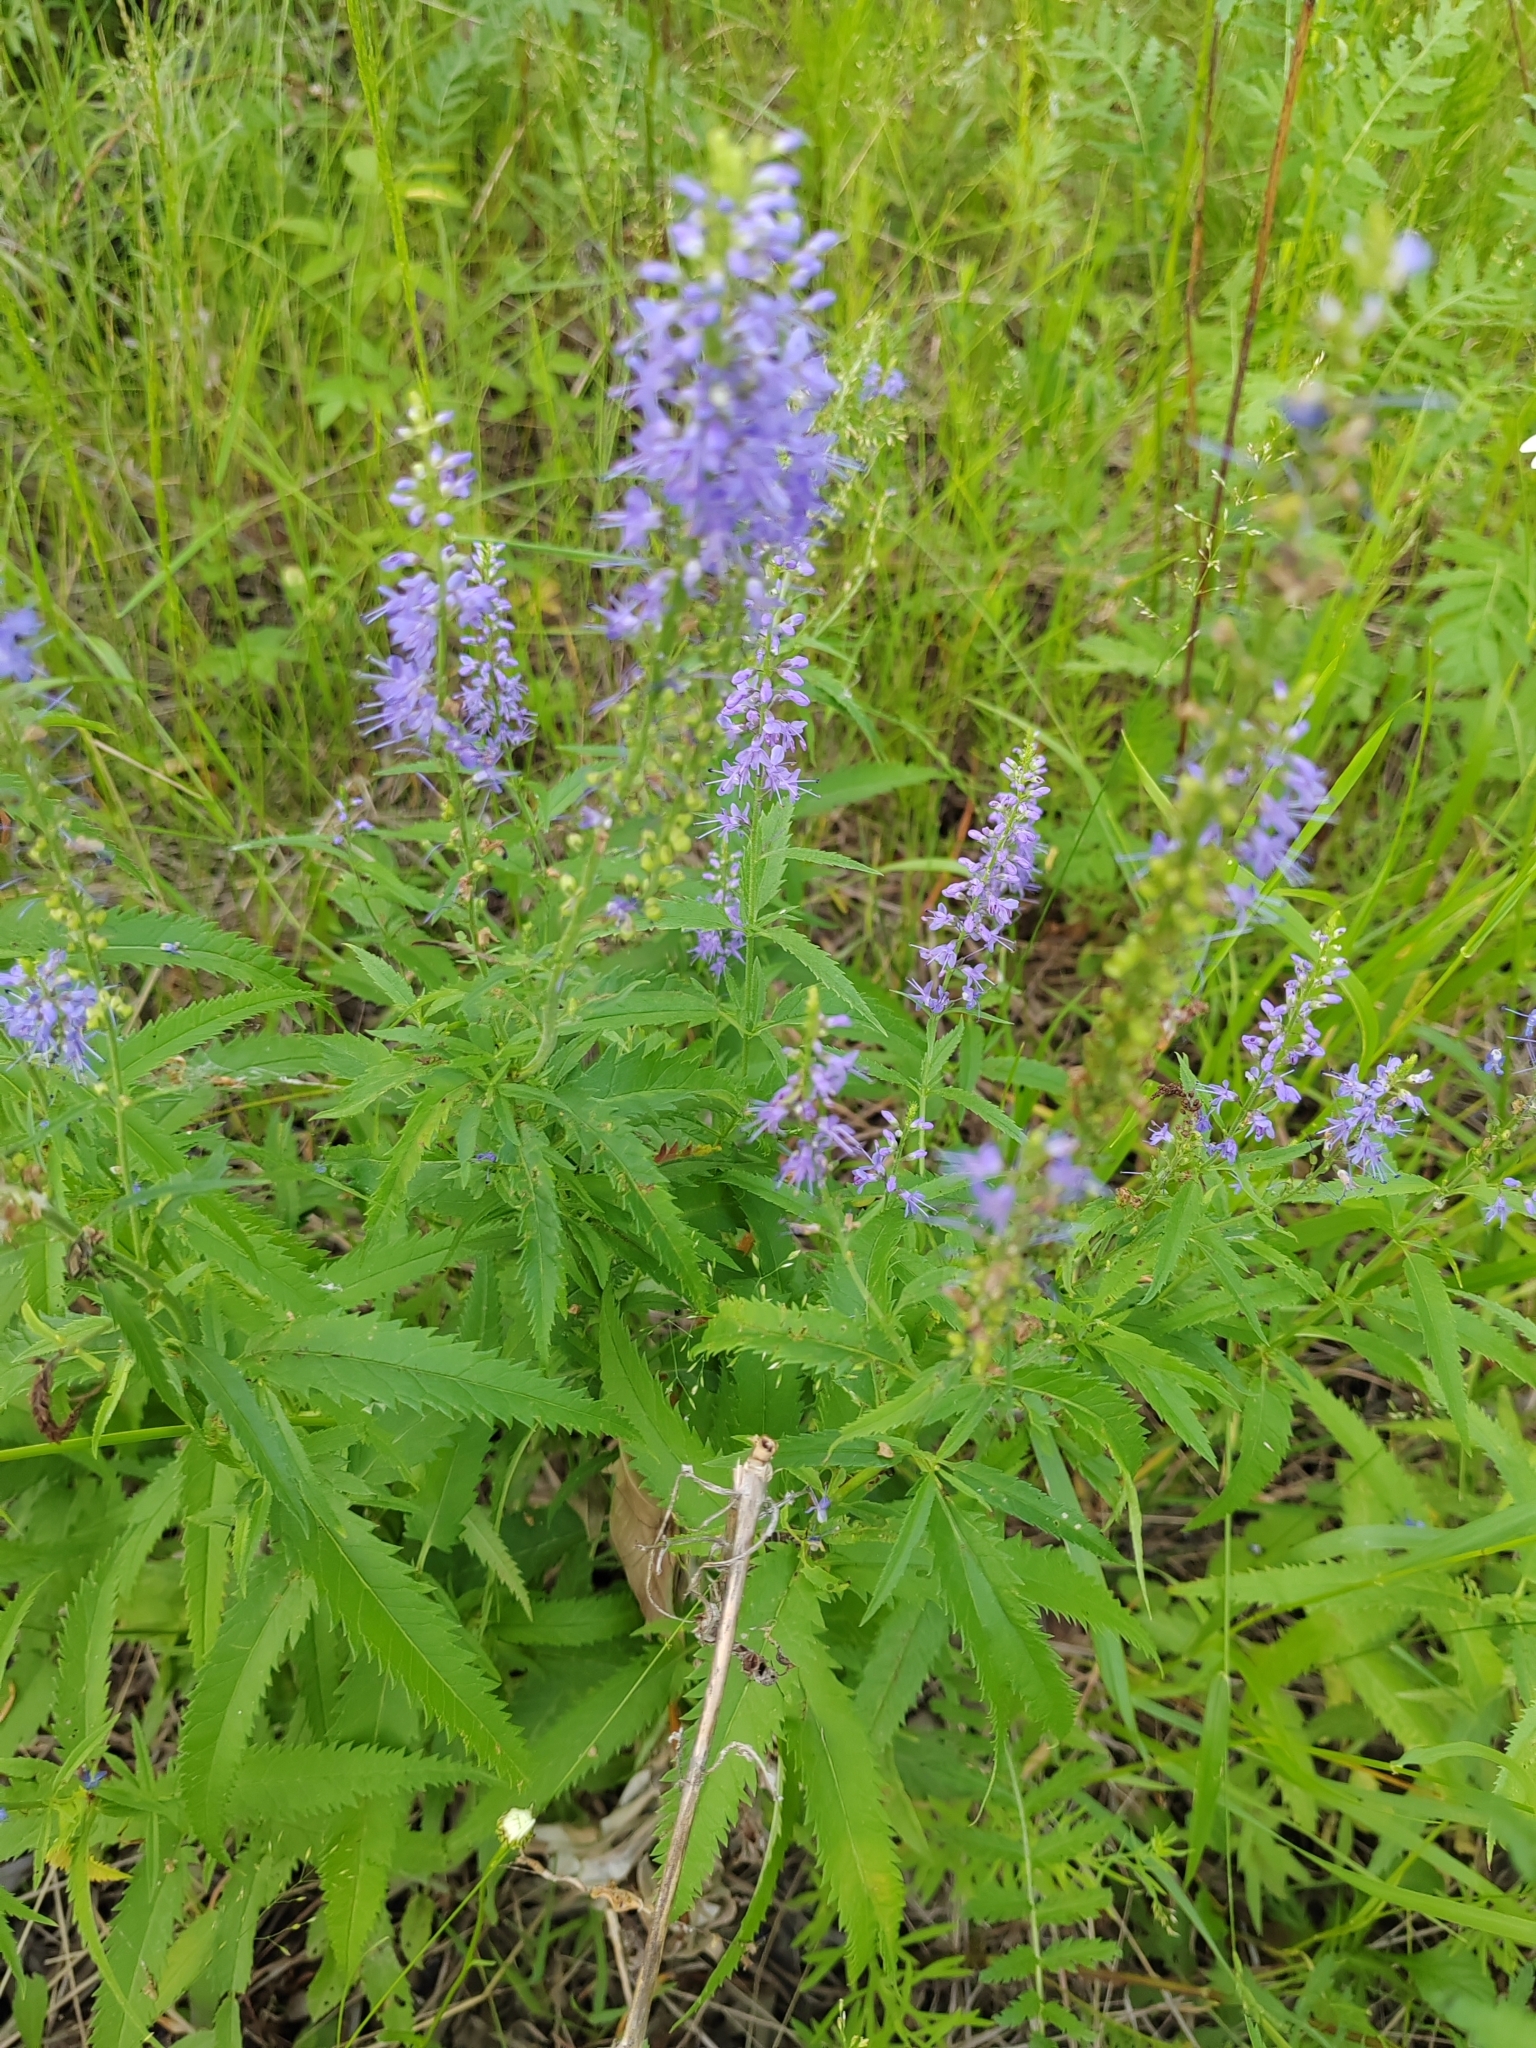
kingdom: Plantae
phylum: Tracheophyta
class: Magnoliopsida
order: Lamiales
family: Plantaginaceae
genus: Veronica
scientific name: Veronica longifolia
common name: Garden speedwell
